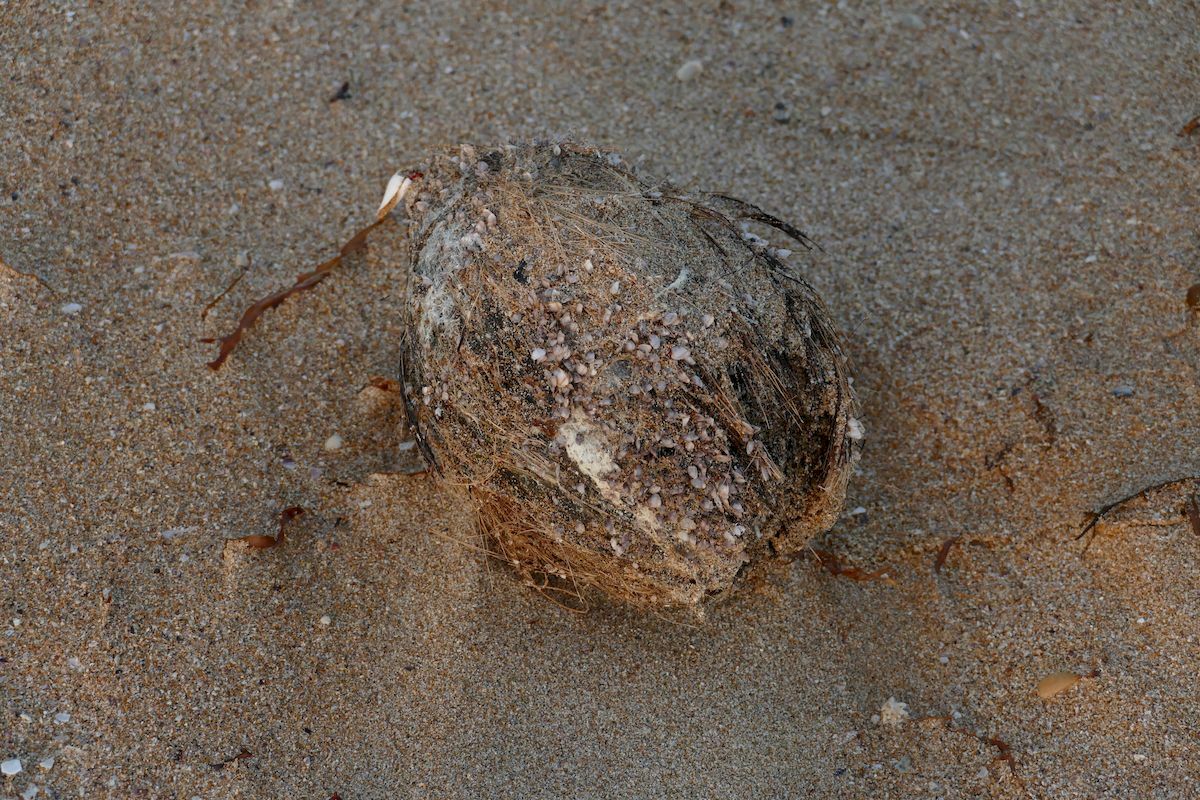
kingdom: Plantae
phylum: Tracheophyta
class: Liliopsida
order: Arecales
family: Arecaceae
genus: Cocos
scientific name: Cocos nucifera
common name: Coconut palm
